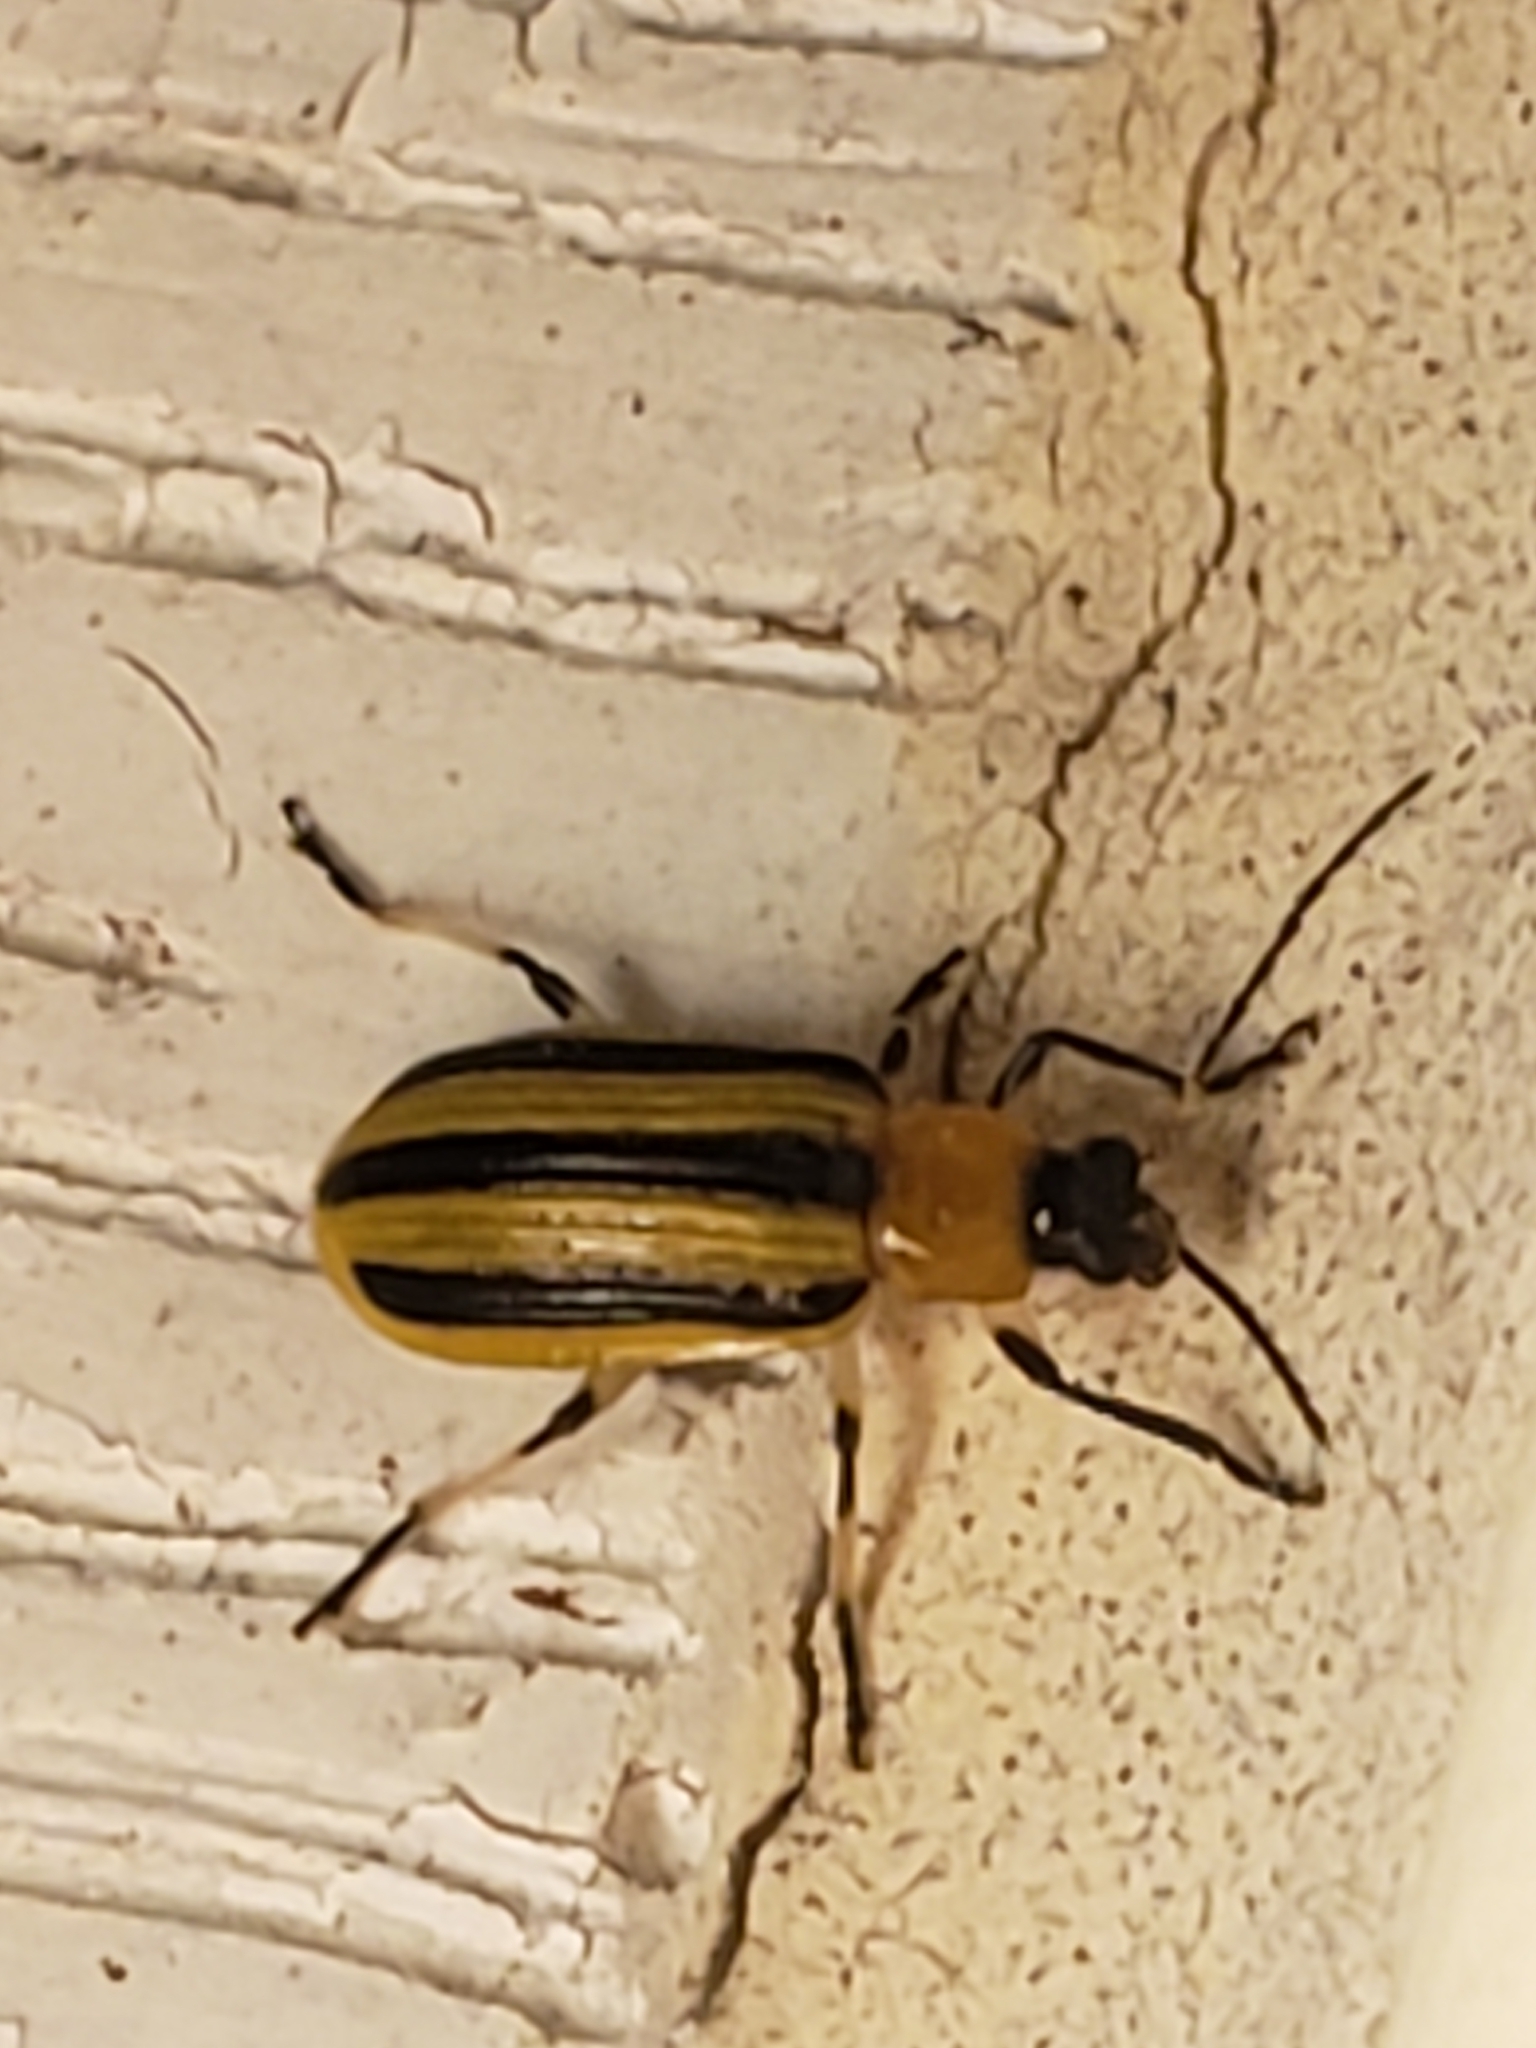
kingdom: Animalia
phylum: Arthropoda
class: Insecta
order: Coleoptera
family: Chrysomelidae
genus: Acalymma
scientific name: Acalymma vittatum
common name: Striped cucumber beetle
